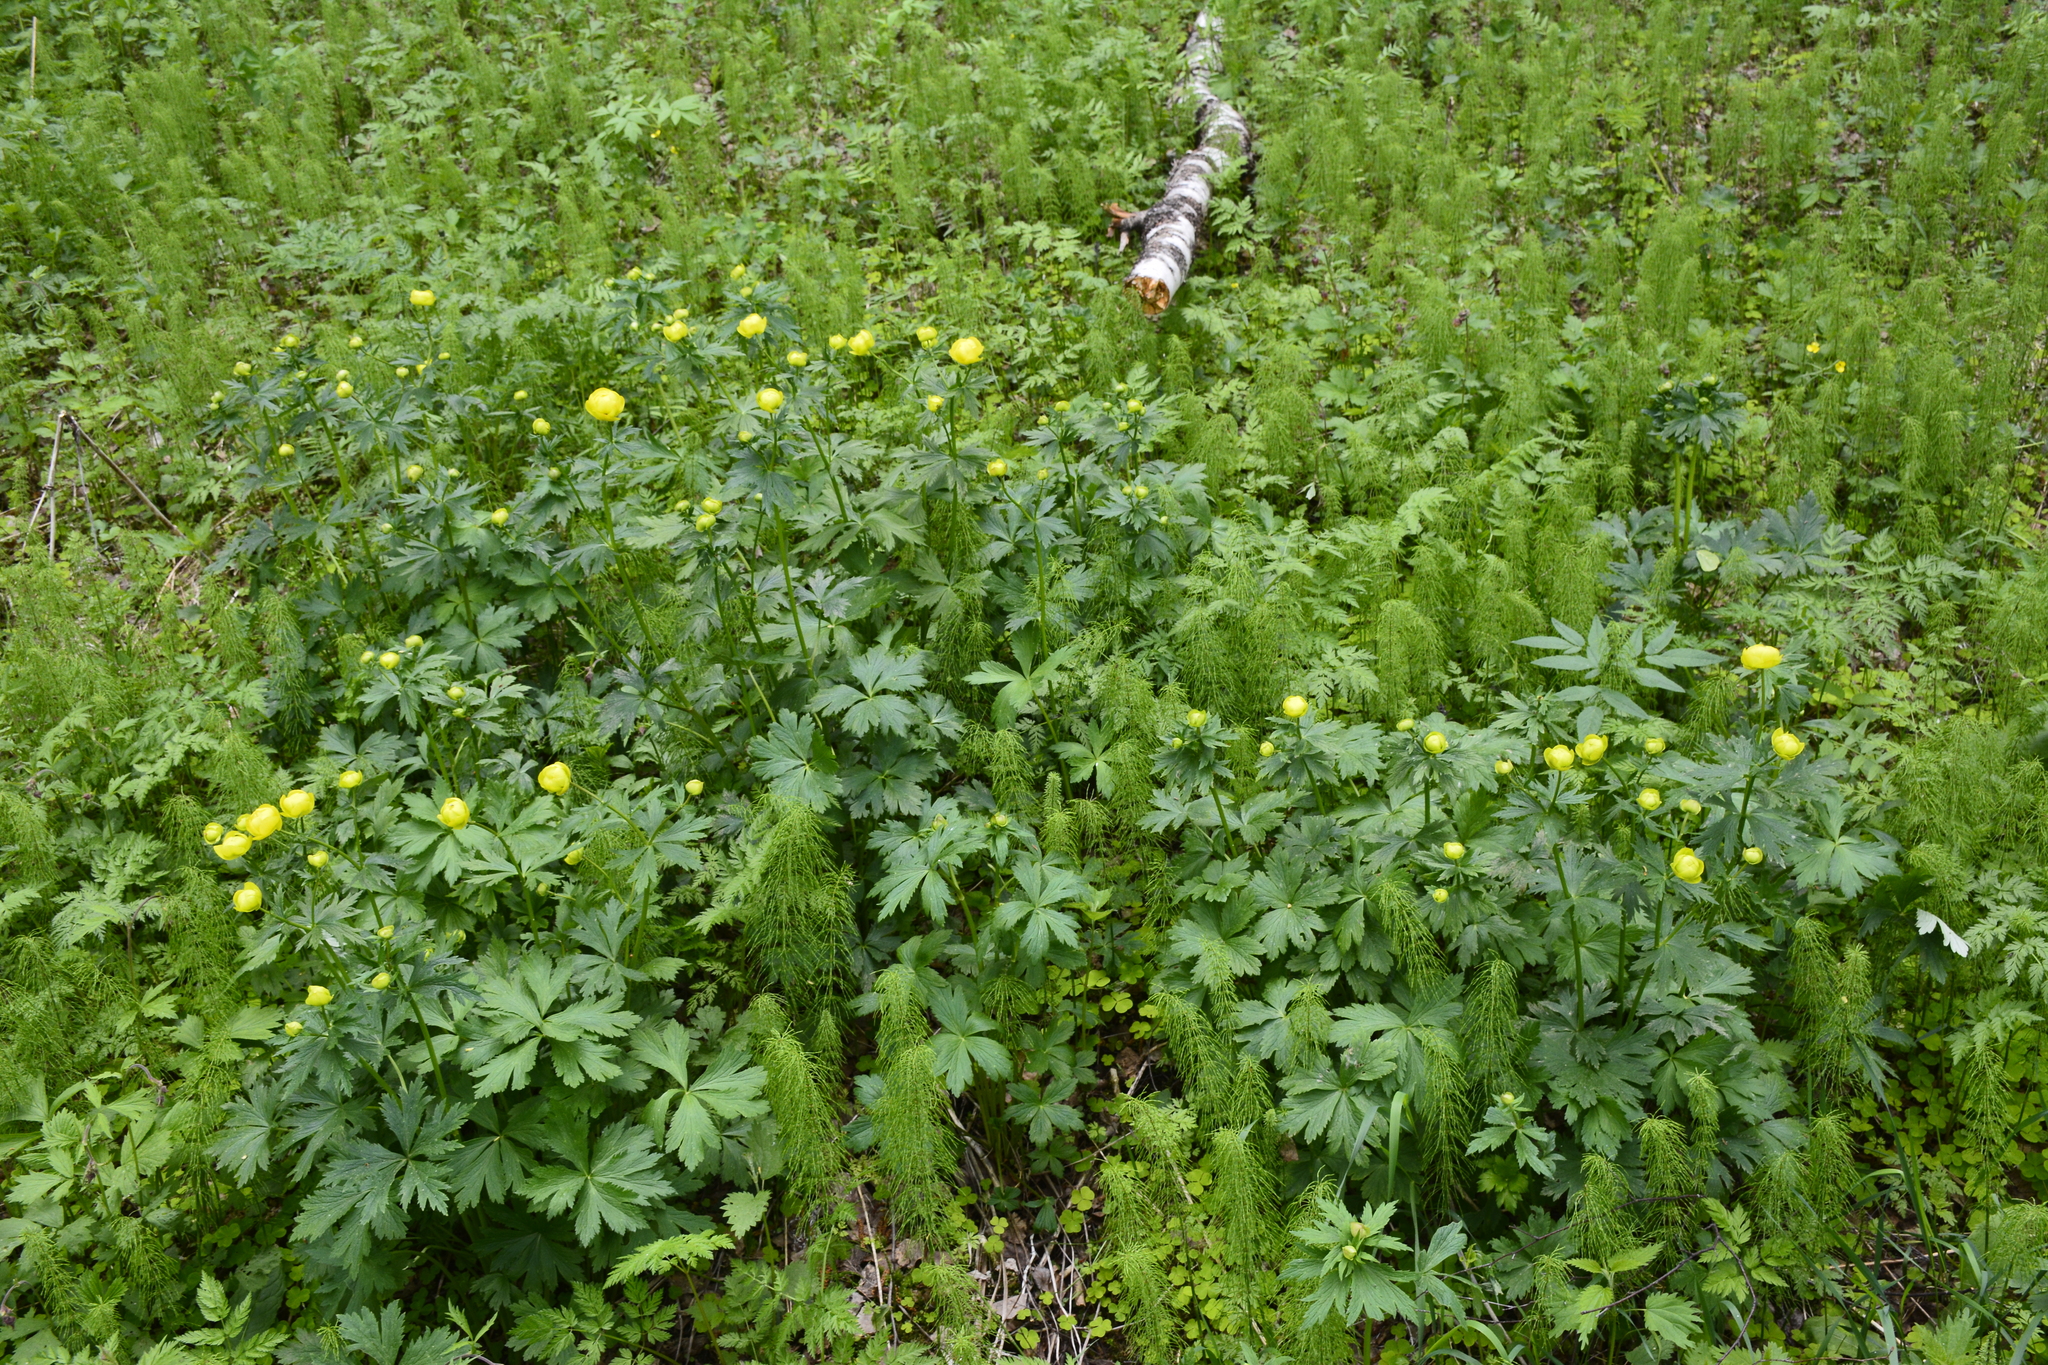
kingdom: Plantae
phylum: Tracheophyta
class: Magnoliopsida
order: Ranunculales
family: Ranunculaceae
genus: Trollius
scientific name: Trollius europaeus
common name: European globeflower
